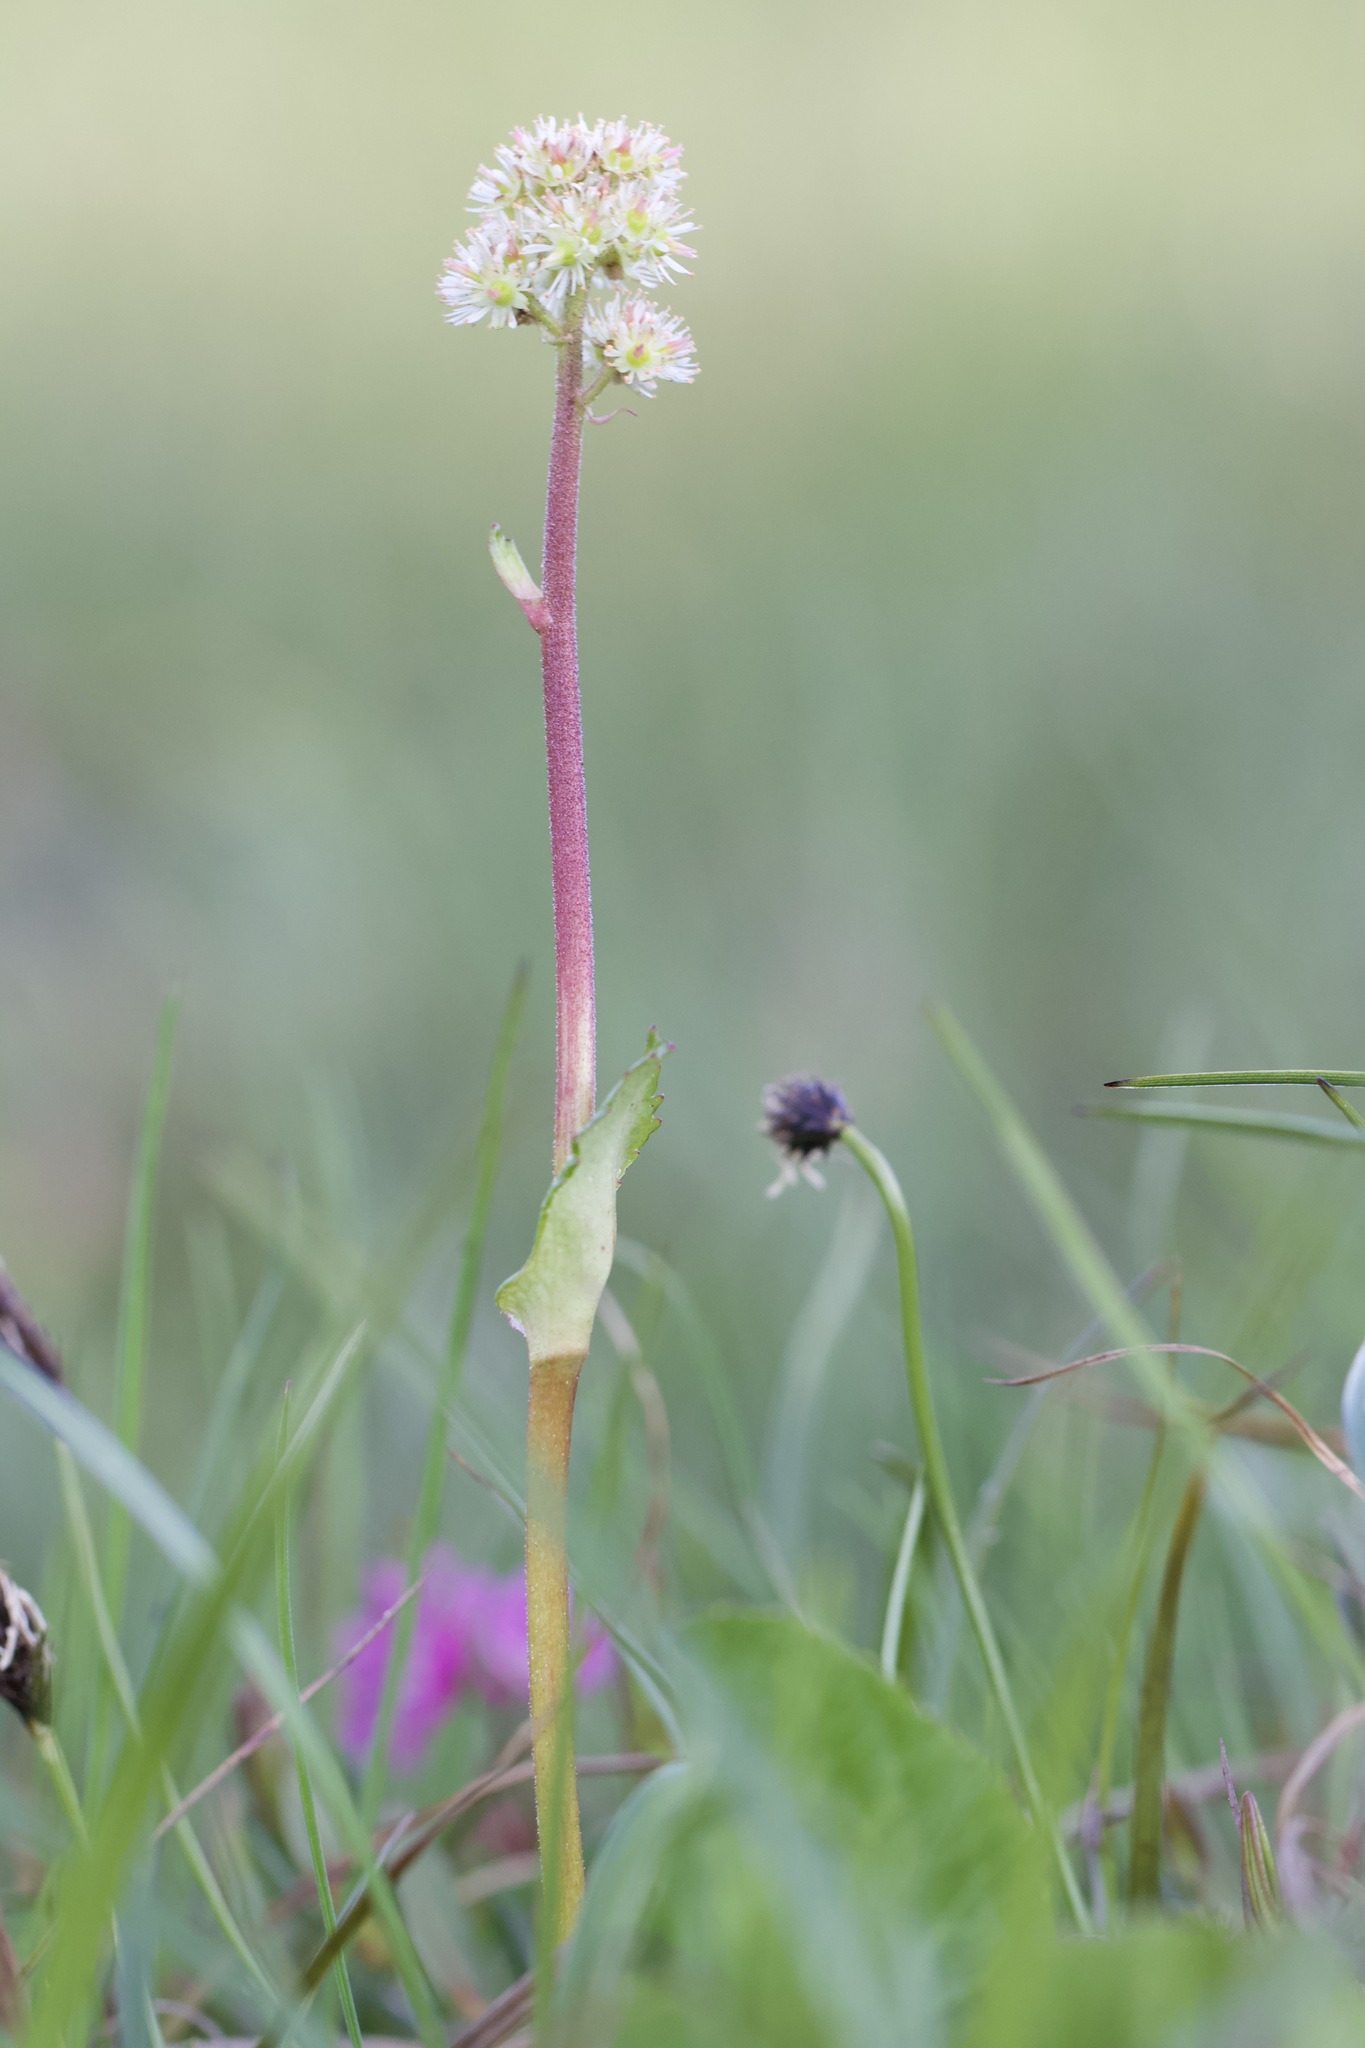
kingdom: Plantae
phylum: Tracheophyta
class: Magnoliopsida
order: Saxifragales
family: Saxifragaceae
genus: Leptarrhena
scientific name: Leptarrhena pyrolifolia
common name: Leatherleaf-saxifrage
